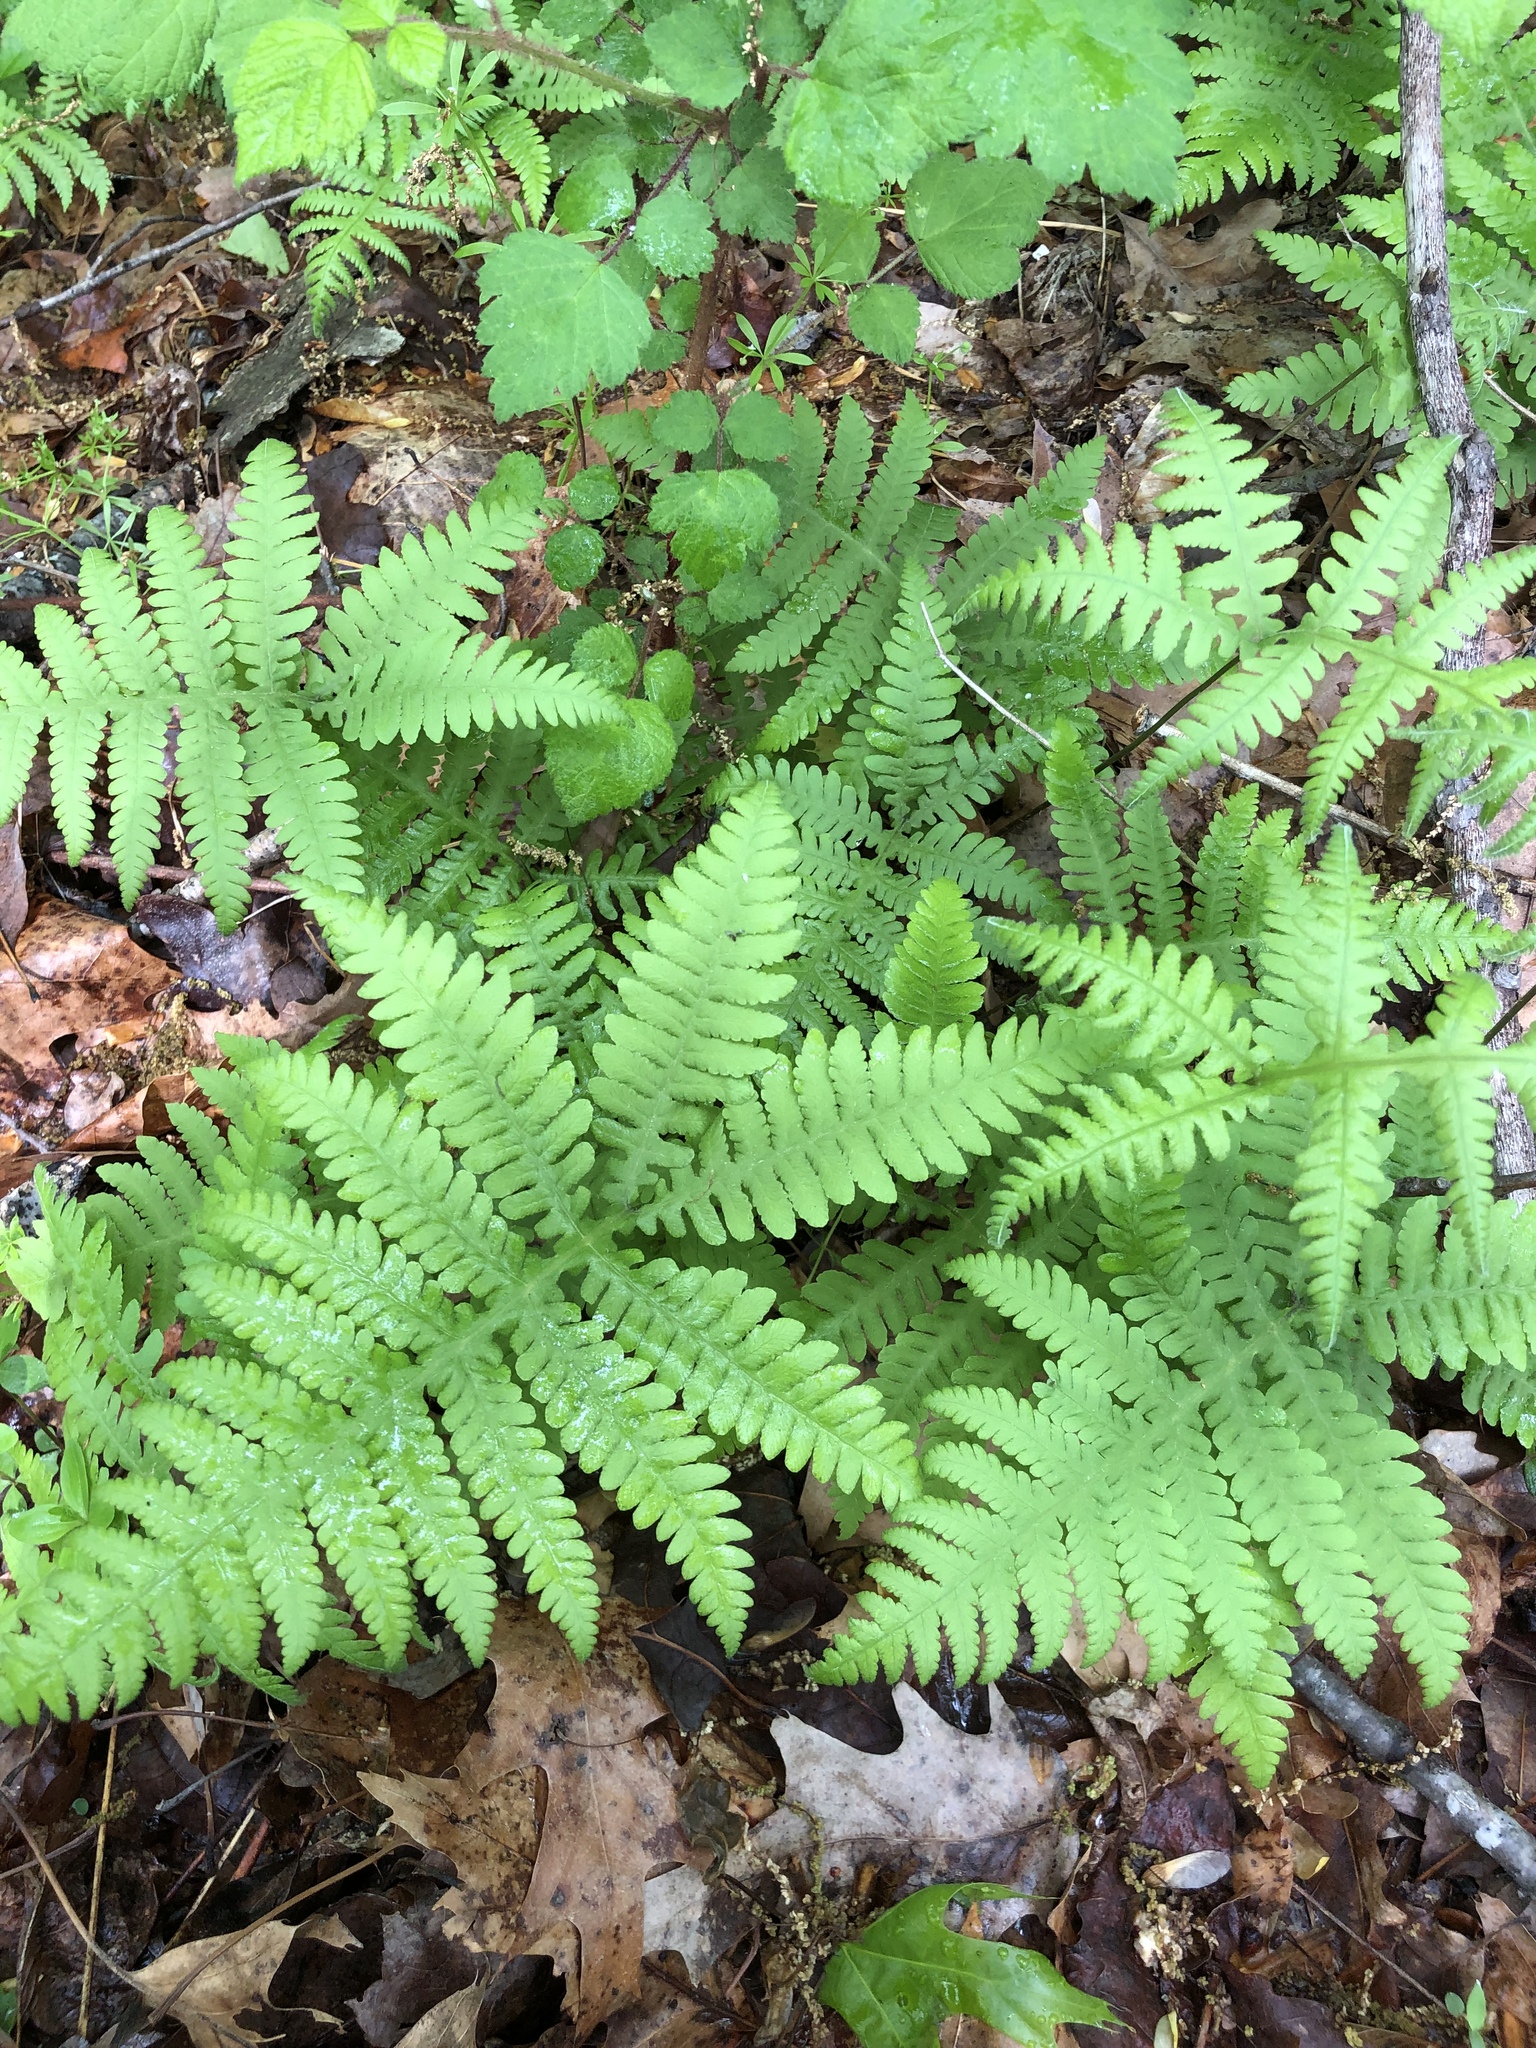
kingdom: Plantae
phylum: Tracheophyta
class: Polypodiopsida
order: Polypodiales
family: Thelypteridaceae
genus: Phegopteris
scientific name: Phegopteris hexagonoptera
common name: Broad beech fern
